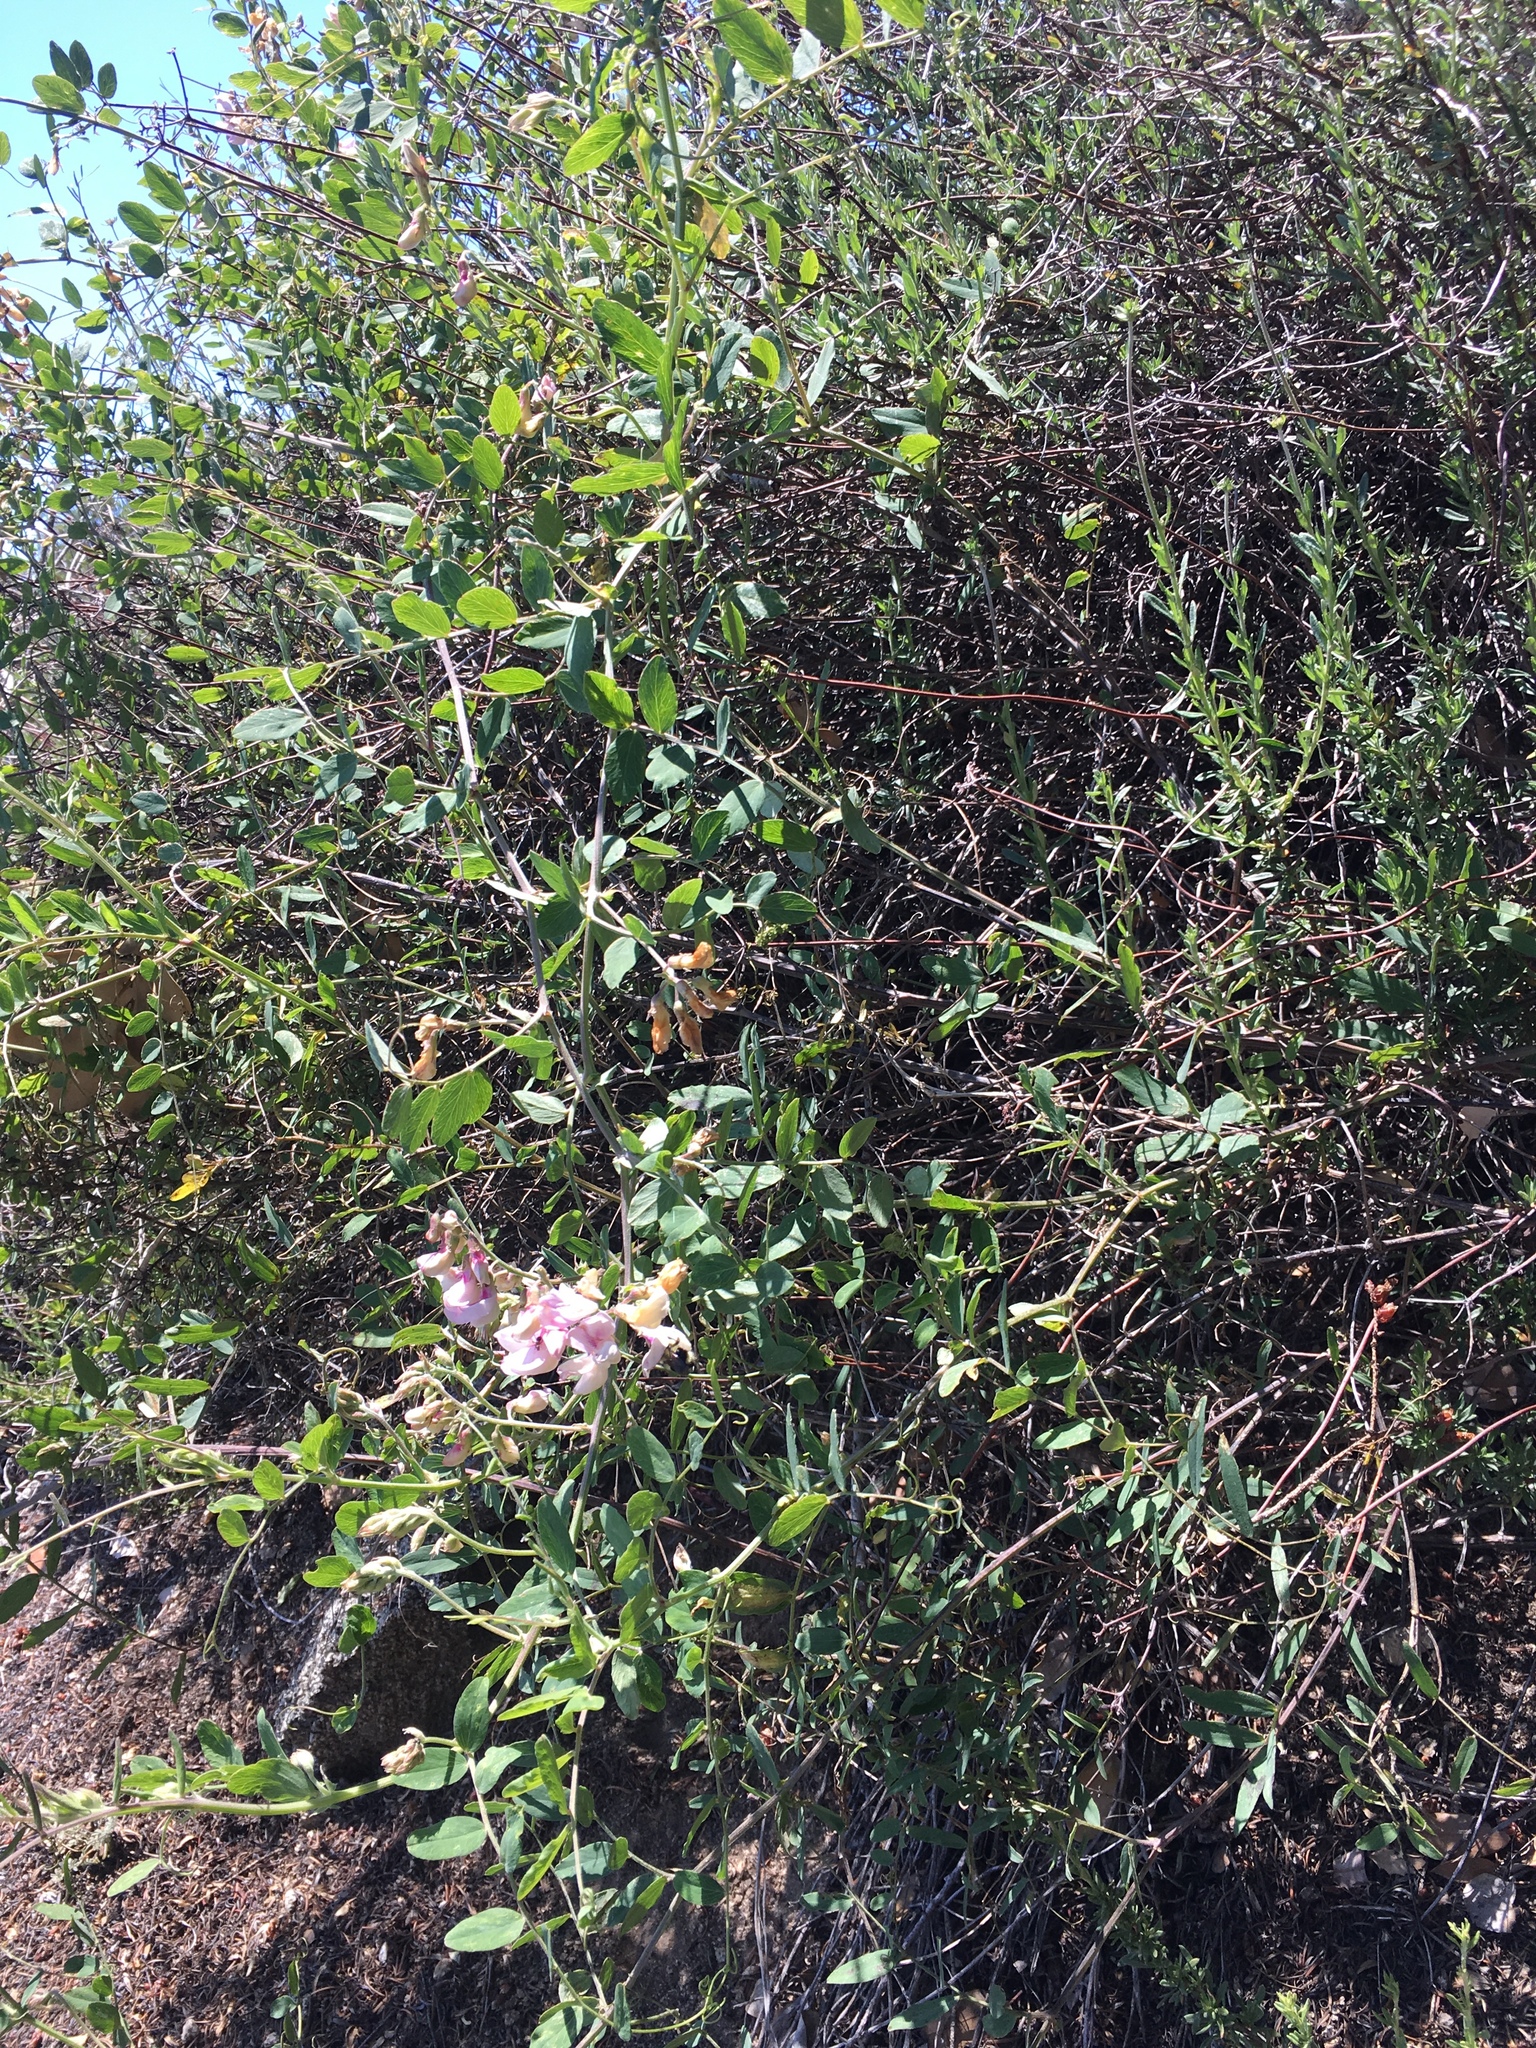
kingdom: Plantae
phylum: Tracheophyta
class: Magnoliopsida
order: Fabales
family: Fabaceae
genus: Lathyrus
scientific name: Lathyrus vestitus
